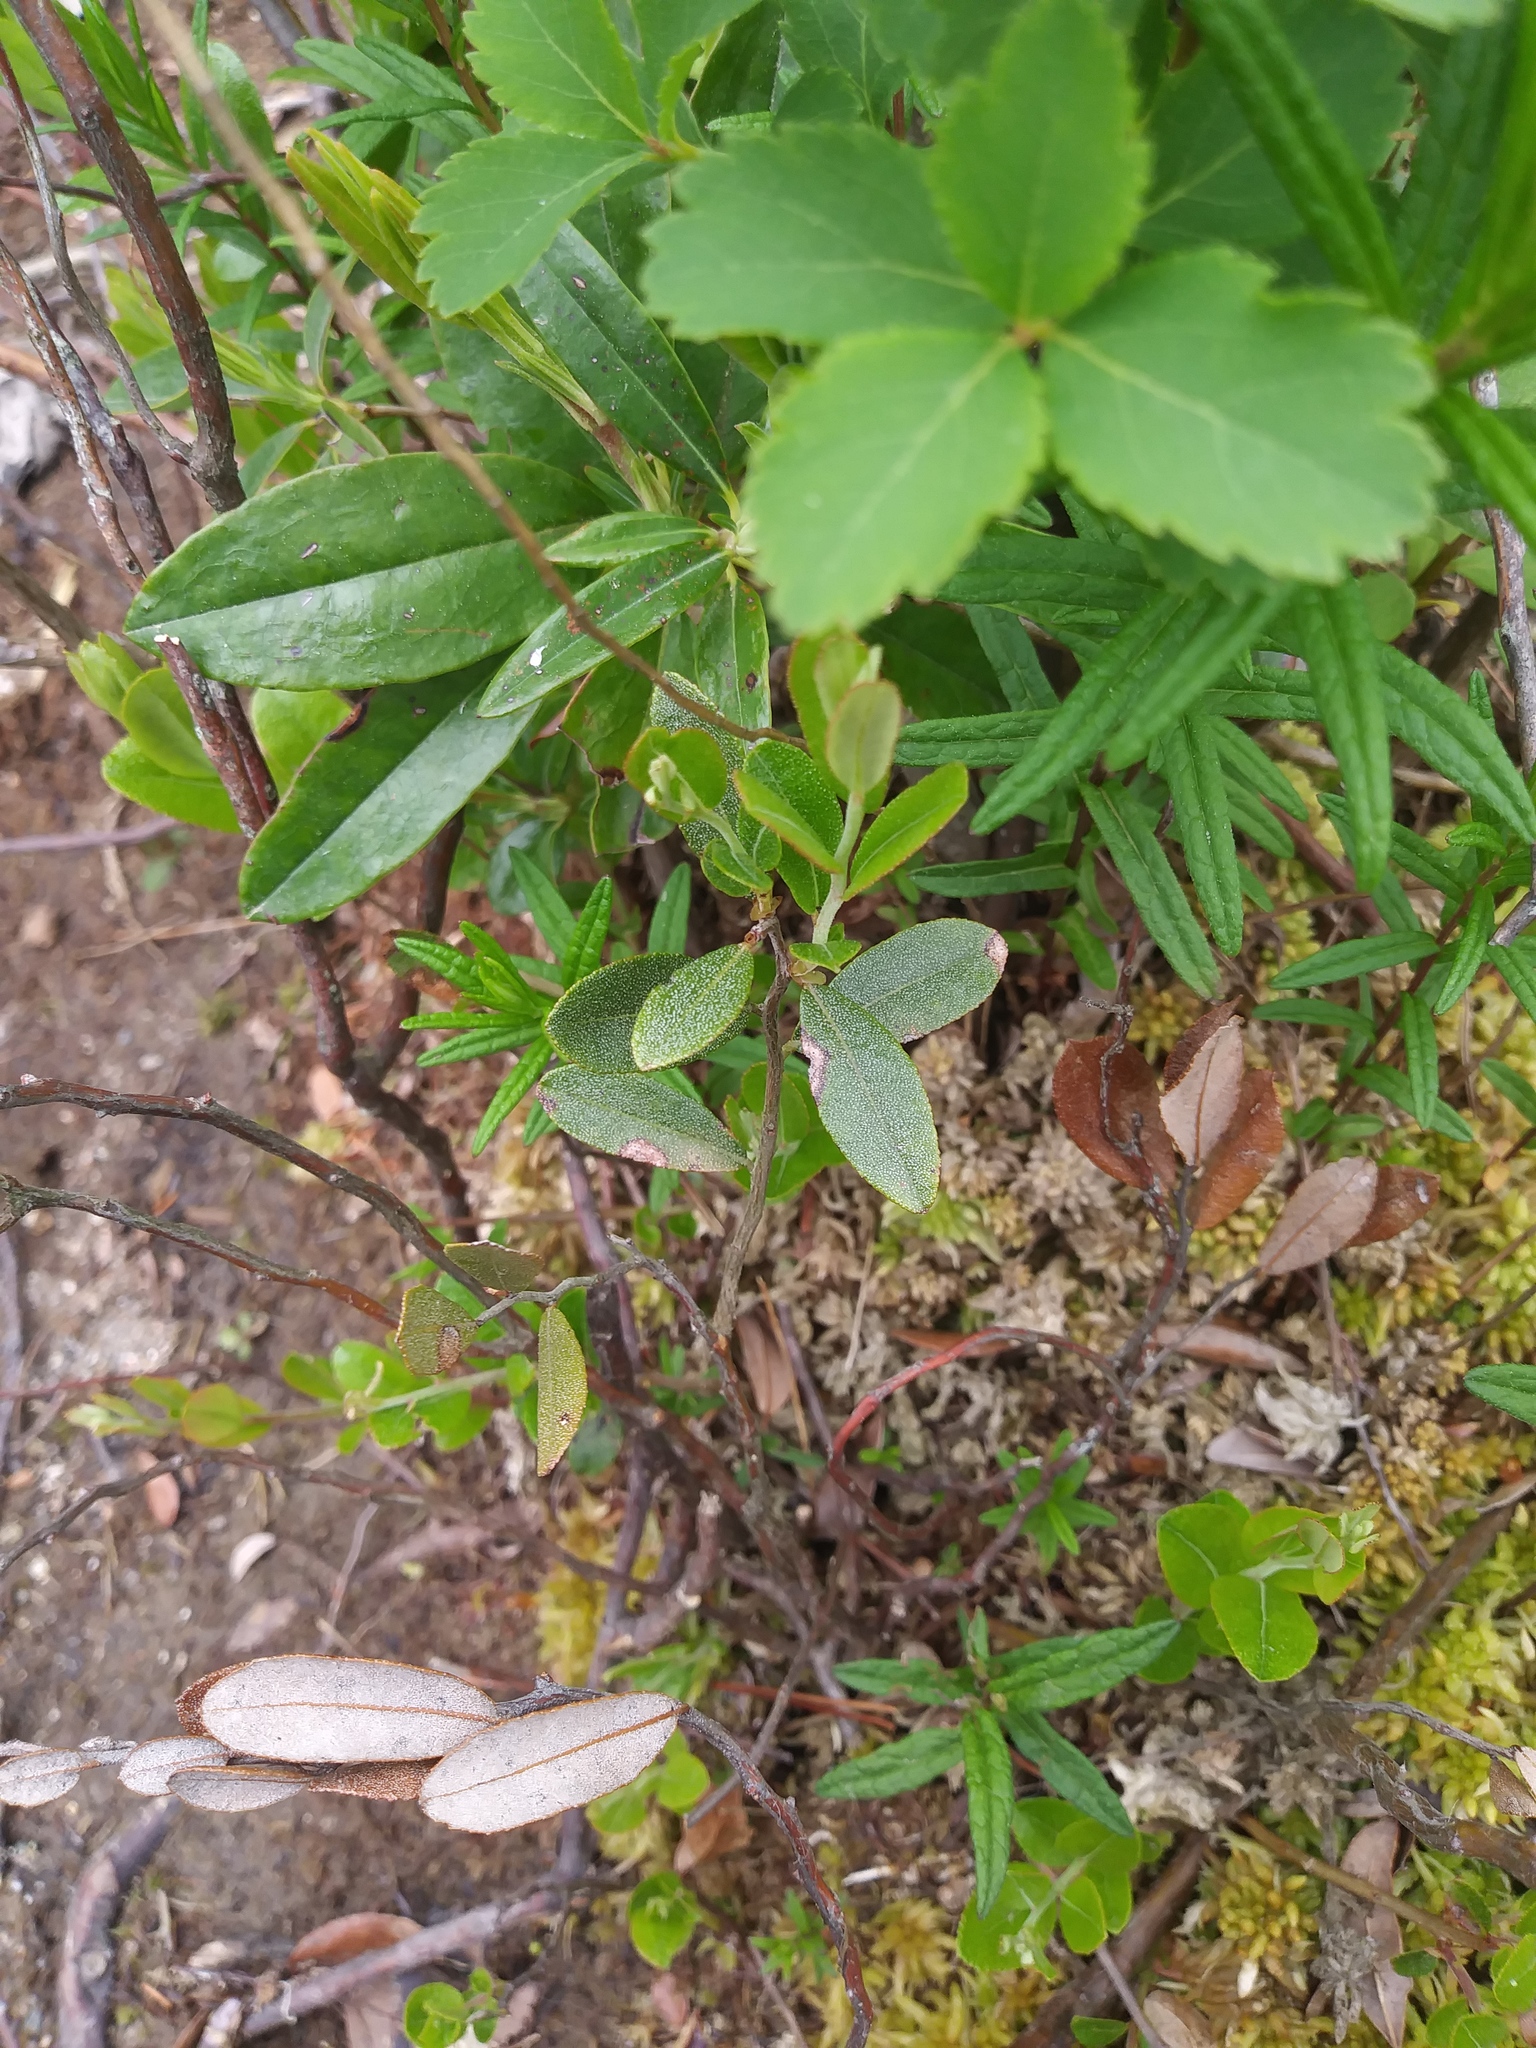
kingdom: Plantae
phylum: Tracheophyta
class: Magnoliopsida
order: Ericales
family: Ericaceae
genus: Chamaedaphne
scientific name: Chamaedaphne calyculata
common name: Leatherleaf
